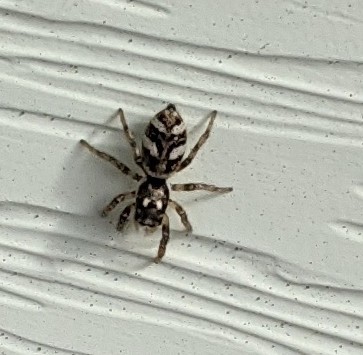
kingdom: Animalia
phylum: Arthropoda
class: Arachnida
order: Araneae
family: Salticidae
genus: Salticus
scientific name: Salticus scenicus
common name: Zebra jumper
